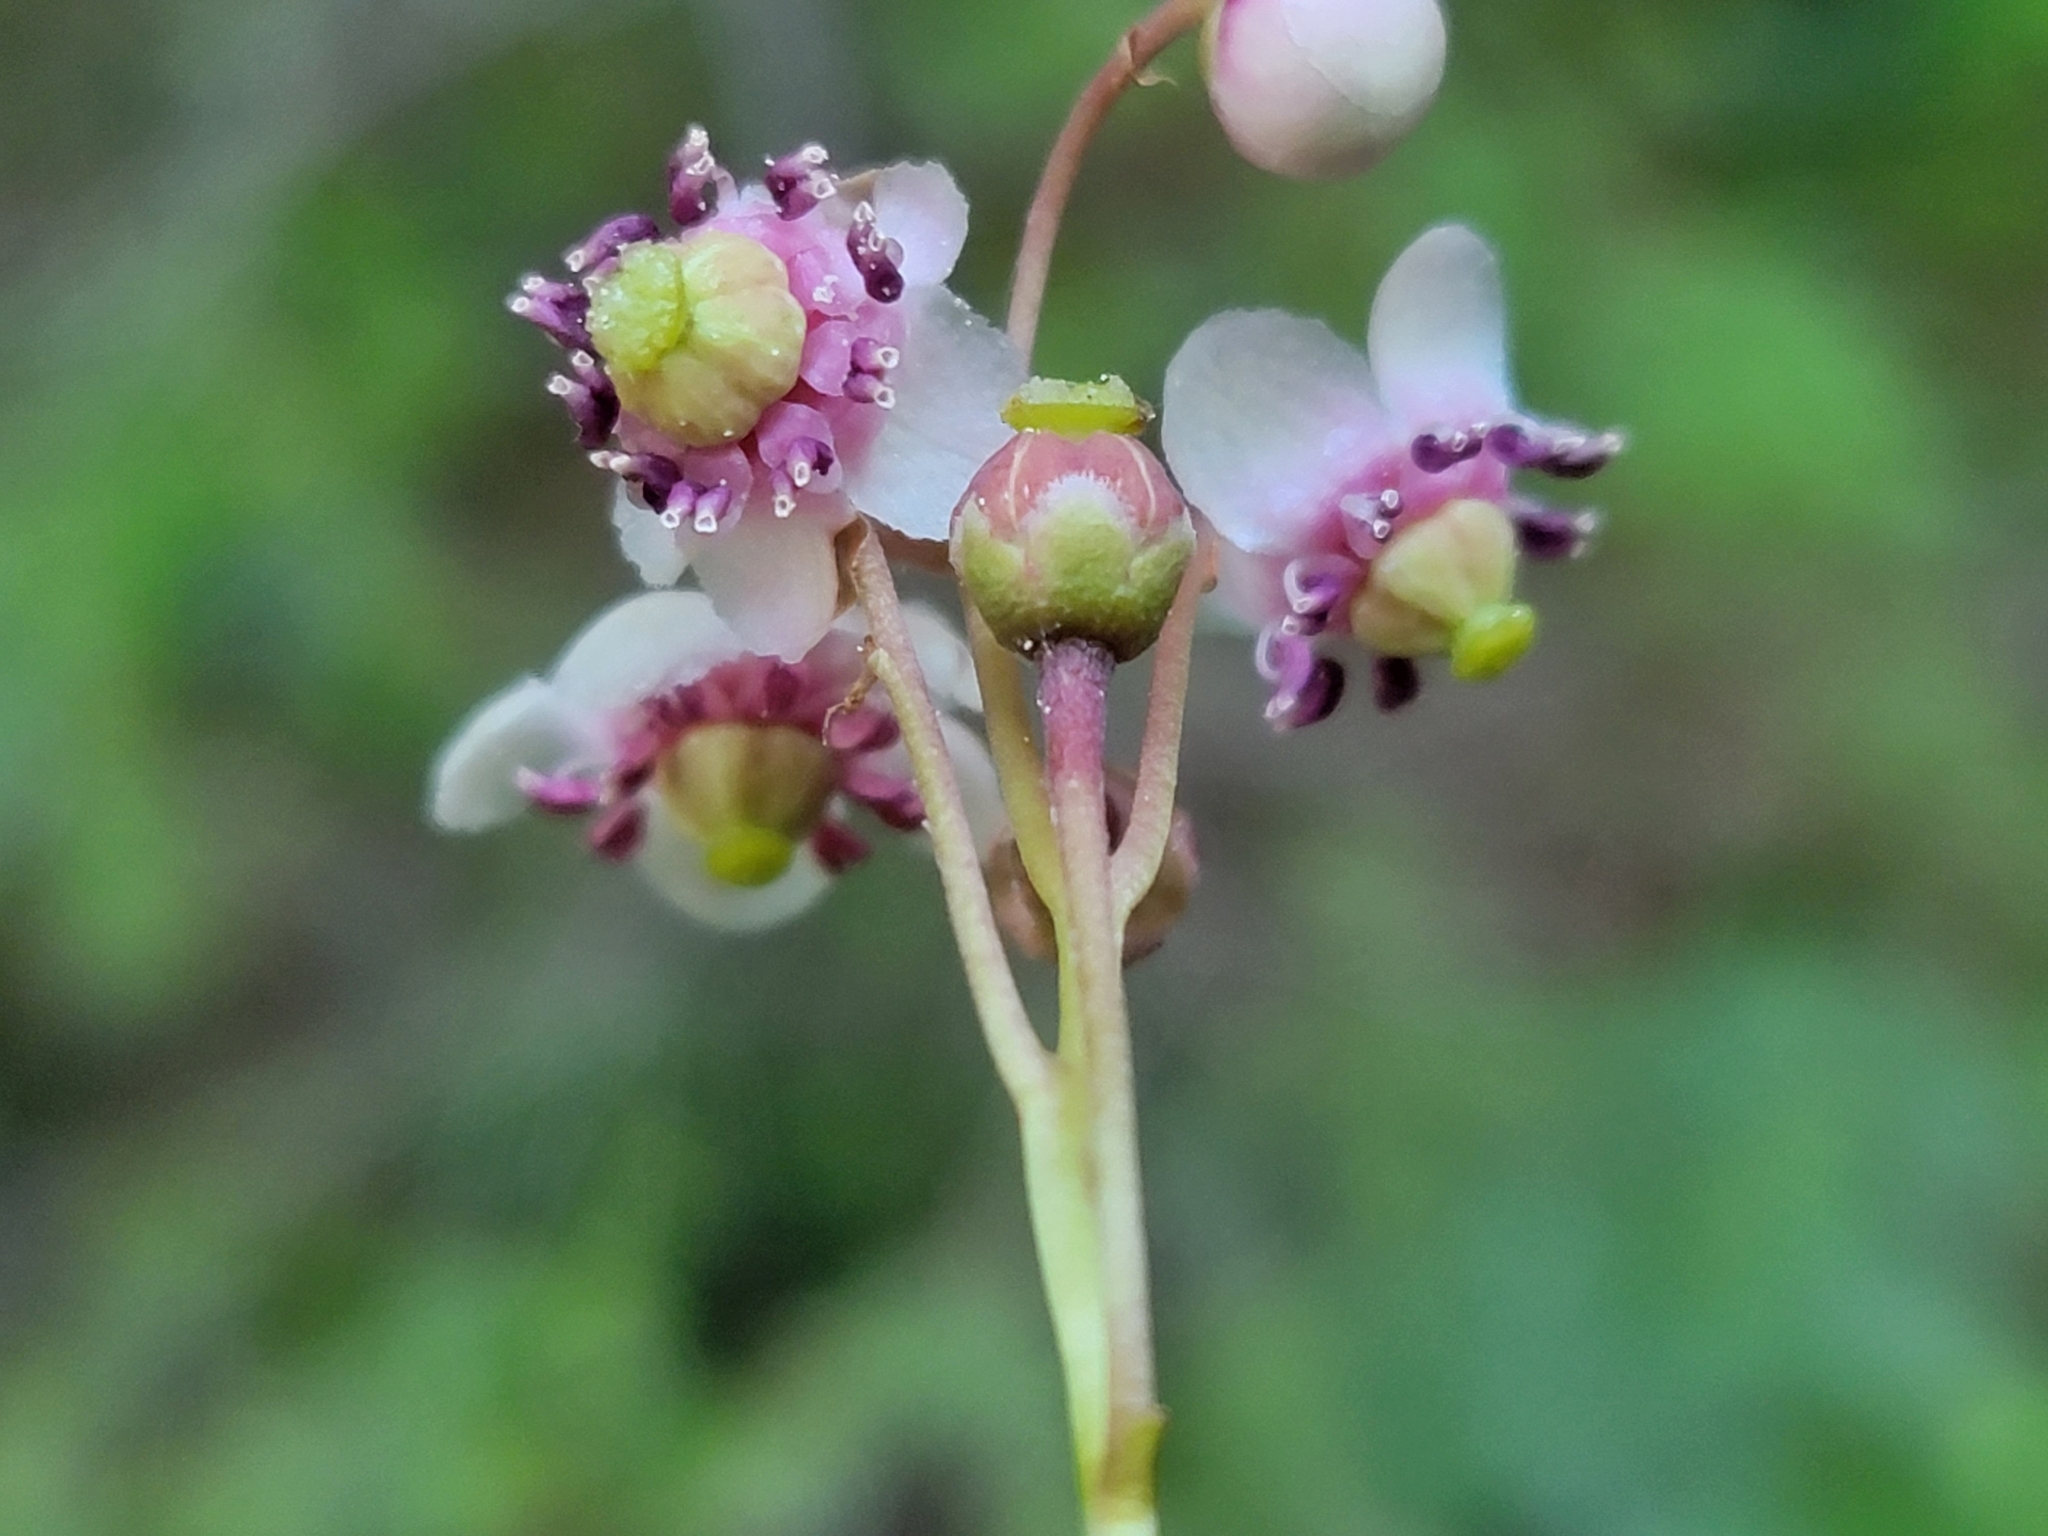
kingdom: Plantae
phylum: Tracheophyta
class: Magnoliopsida
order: Ericales
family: Ericaceae
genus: Chimaphila
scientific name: Chimaphila umbellata
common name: Pipsissewa
